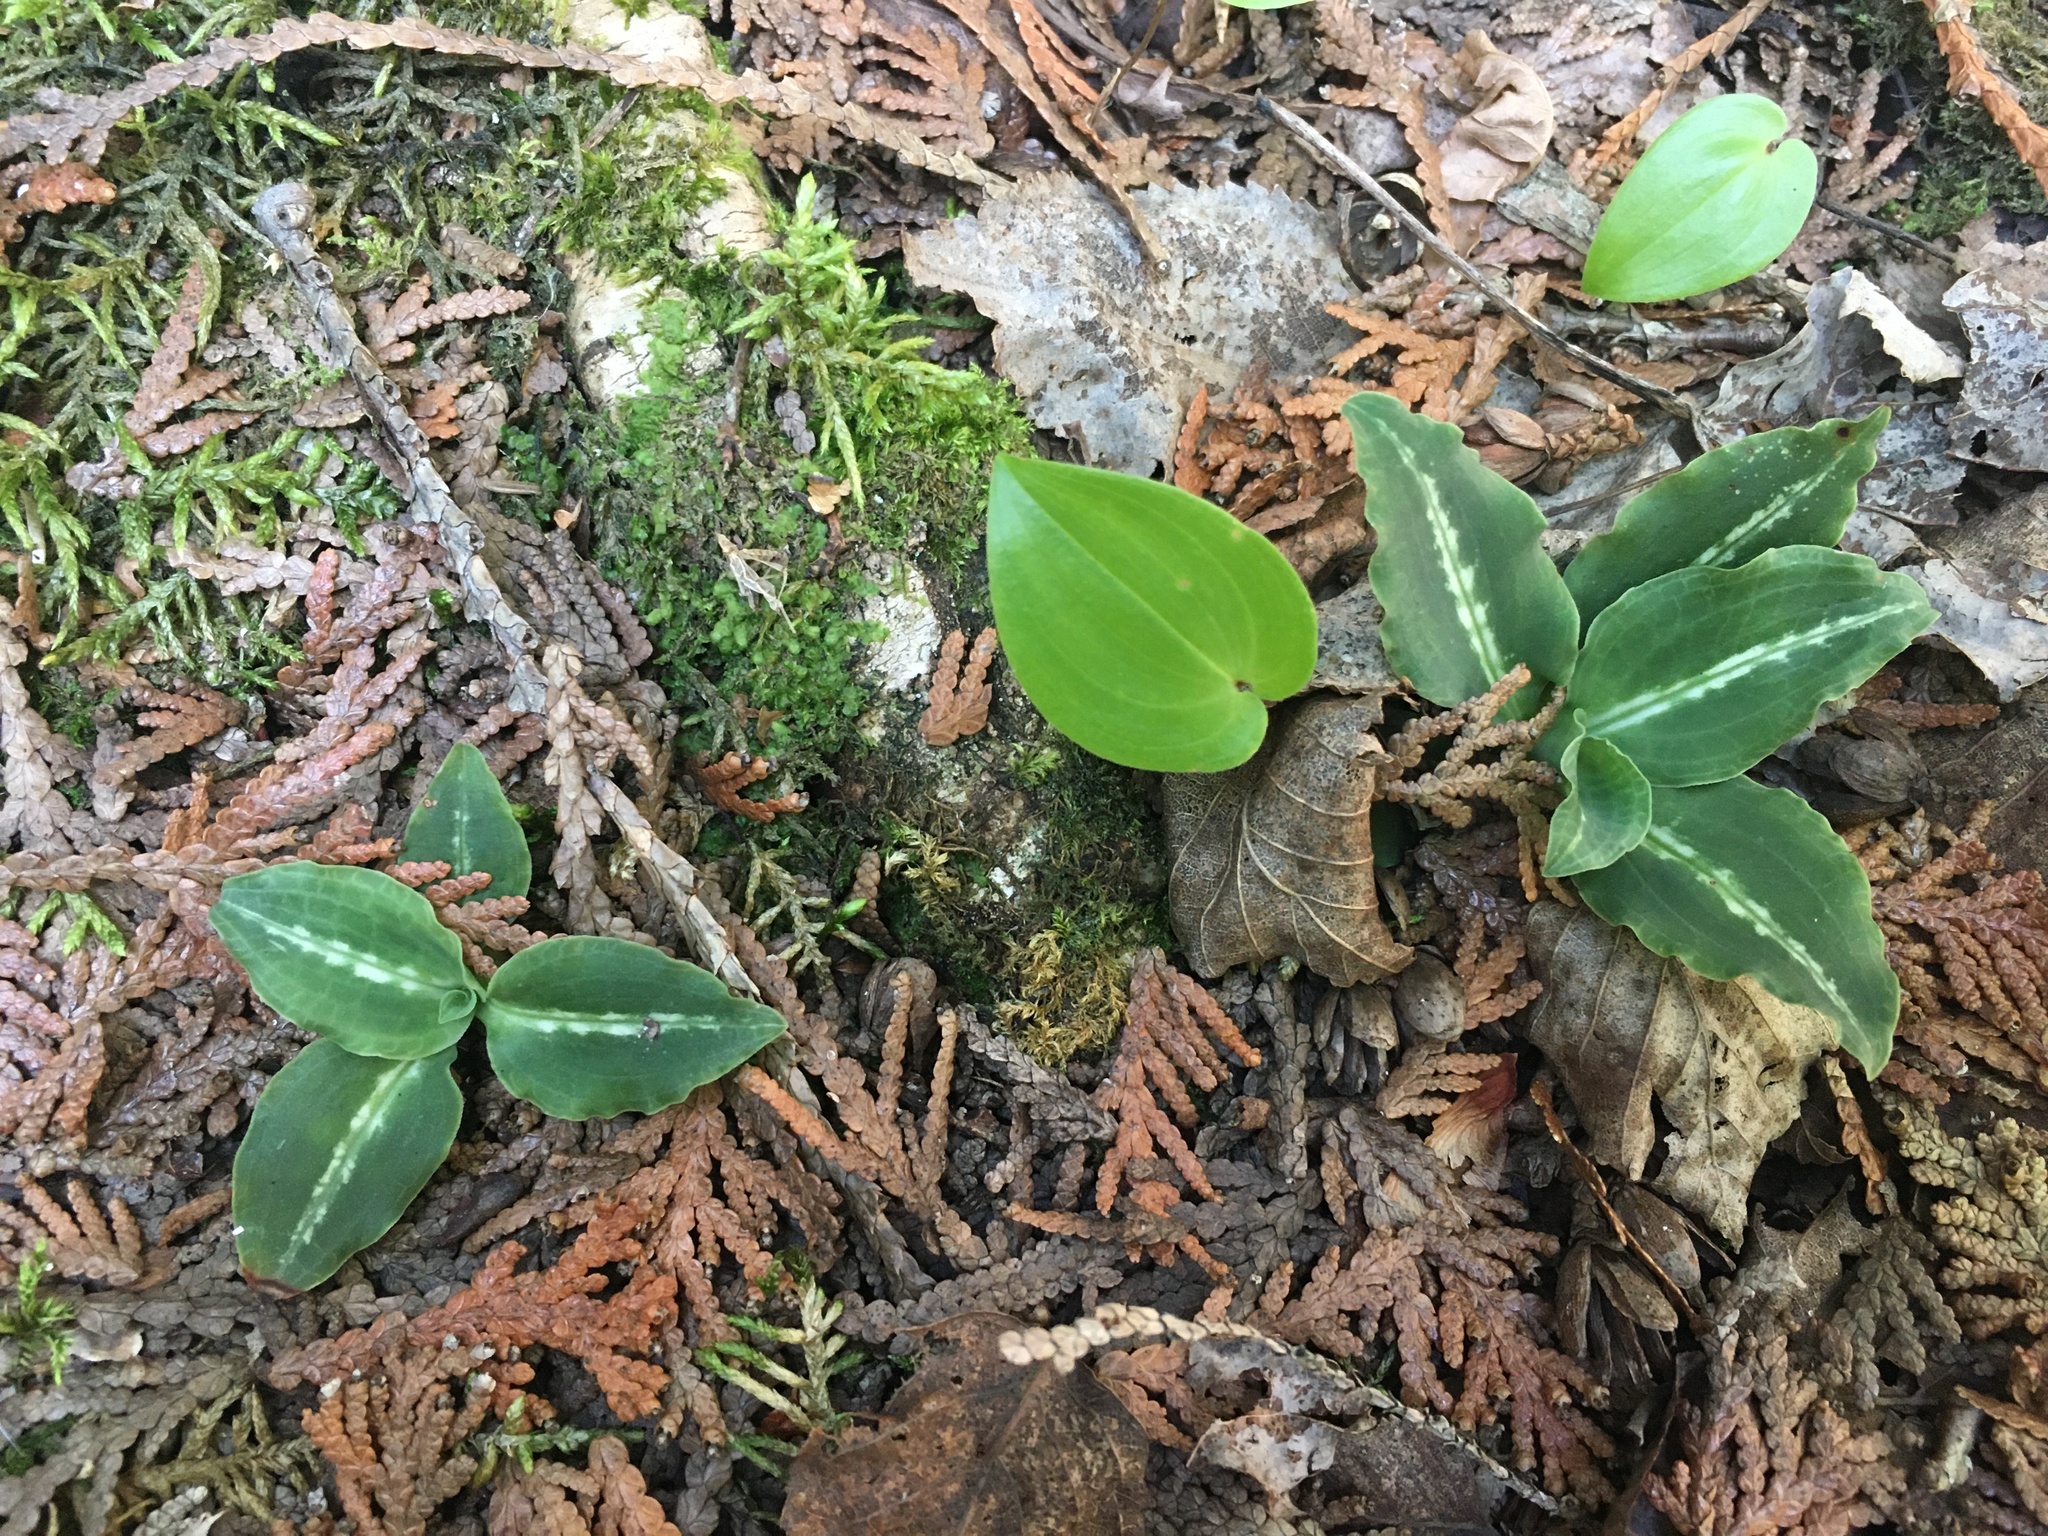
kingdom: Plantae
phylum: Tracheophyta
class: Liliopsida
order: Asparagales
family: Orchidaceae
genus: Goodyera
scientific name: Goodyera oblongifolia
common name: Giant rattlesnake-plantain
